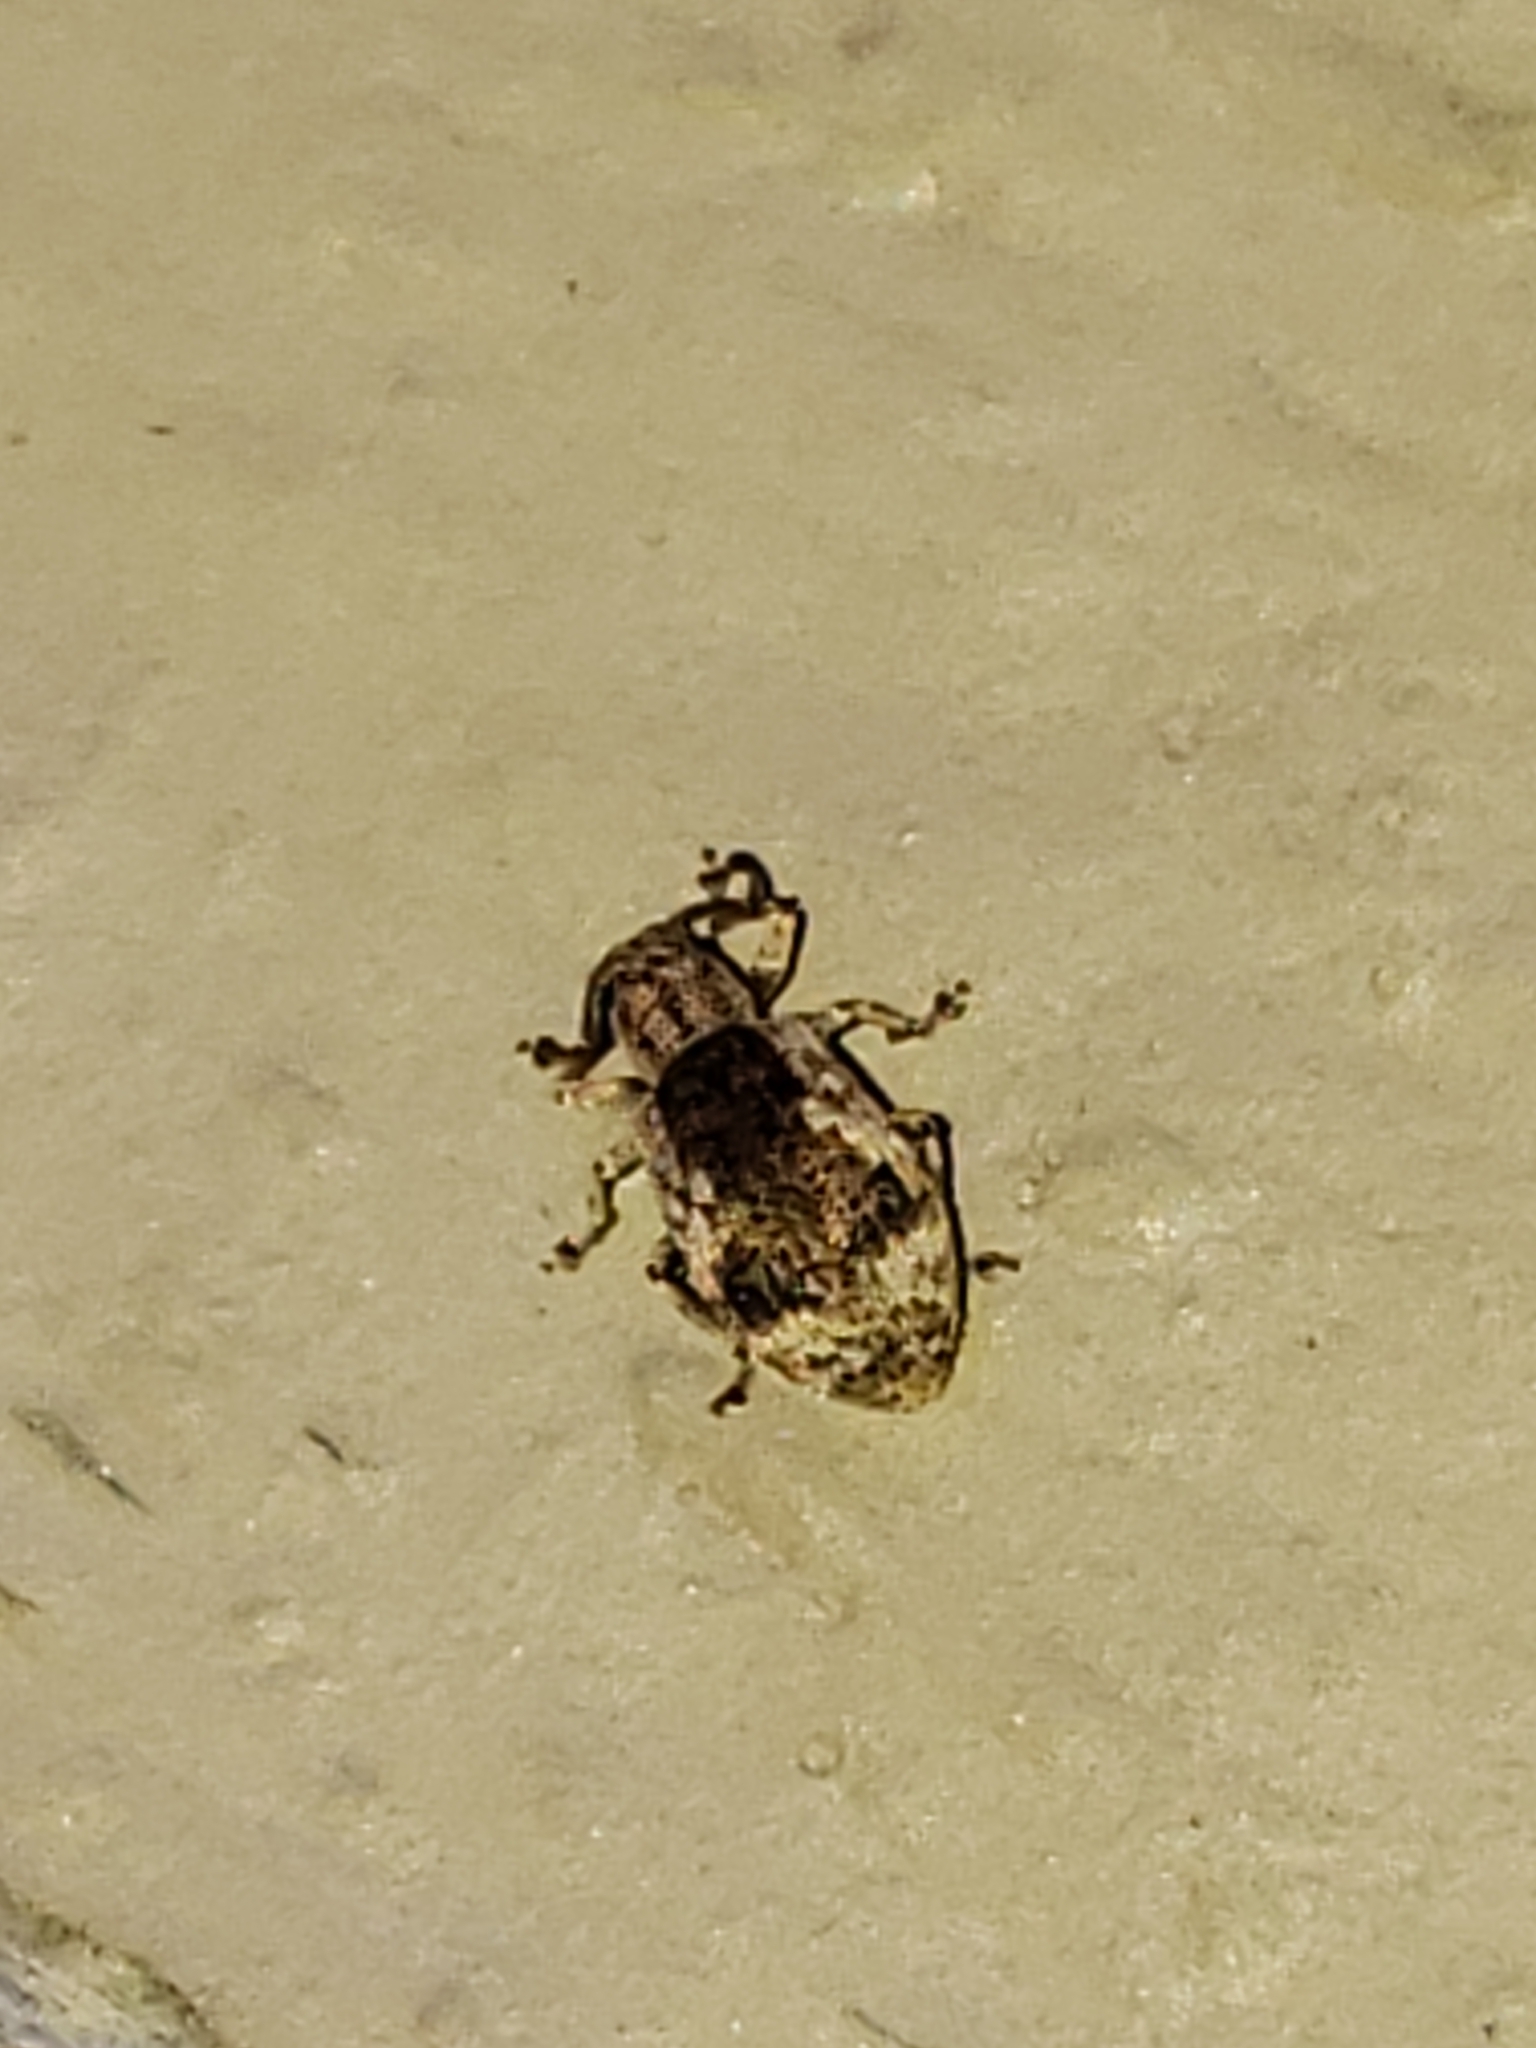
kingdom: Animalia
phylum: Arthropoda
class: Insecta
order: Coleoptera
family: Curculionidae
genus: Pseudoedophrys
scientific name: Pseudoedophrys hilleri
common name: Weevil
